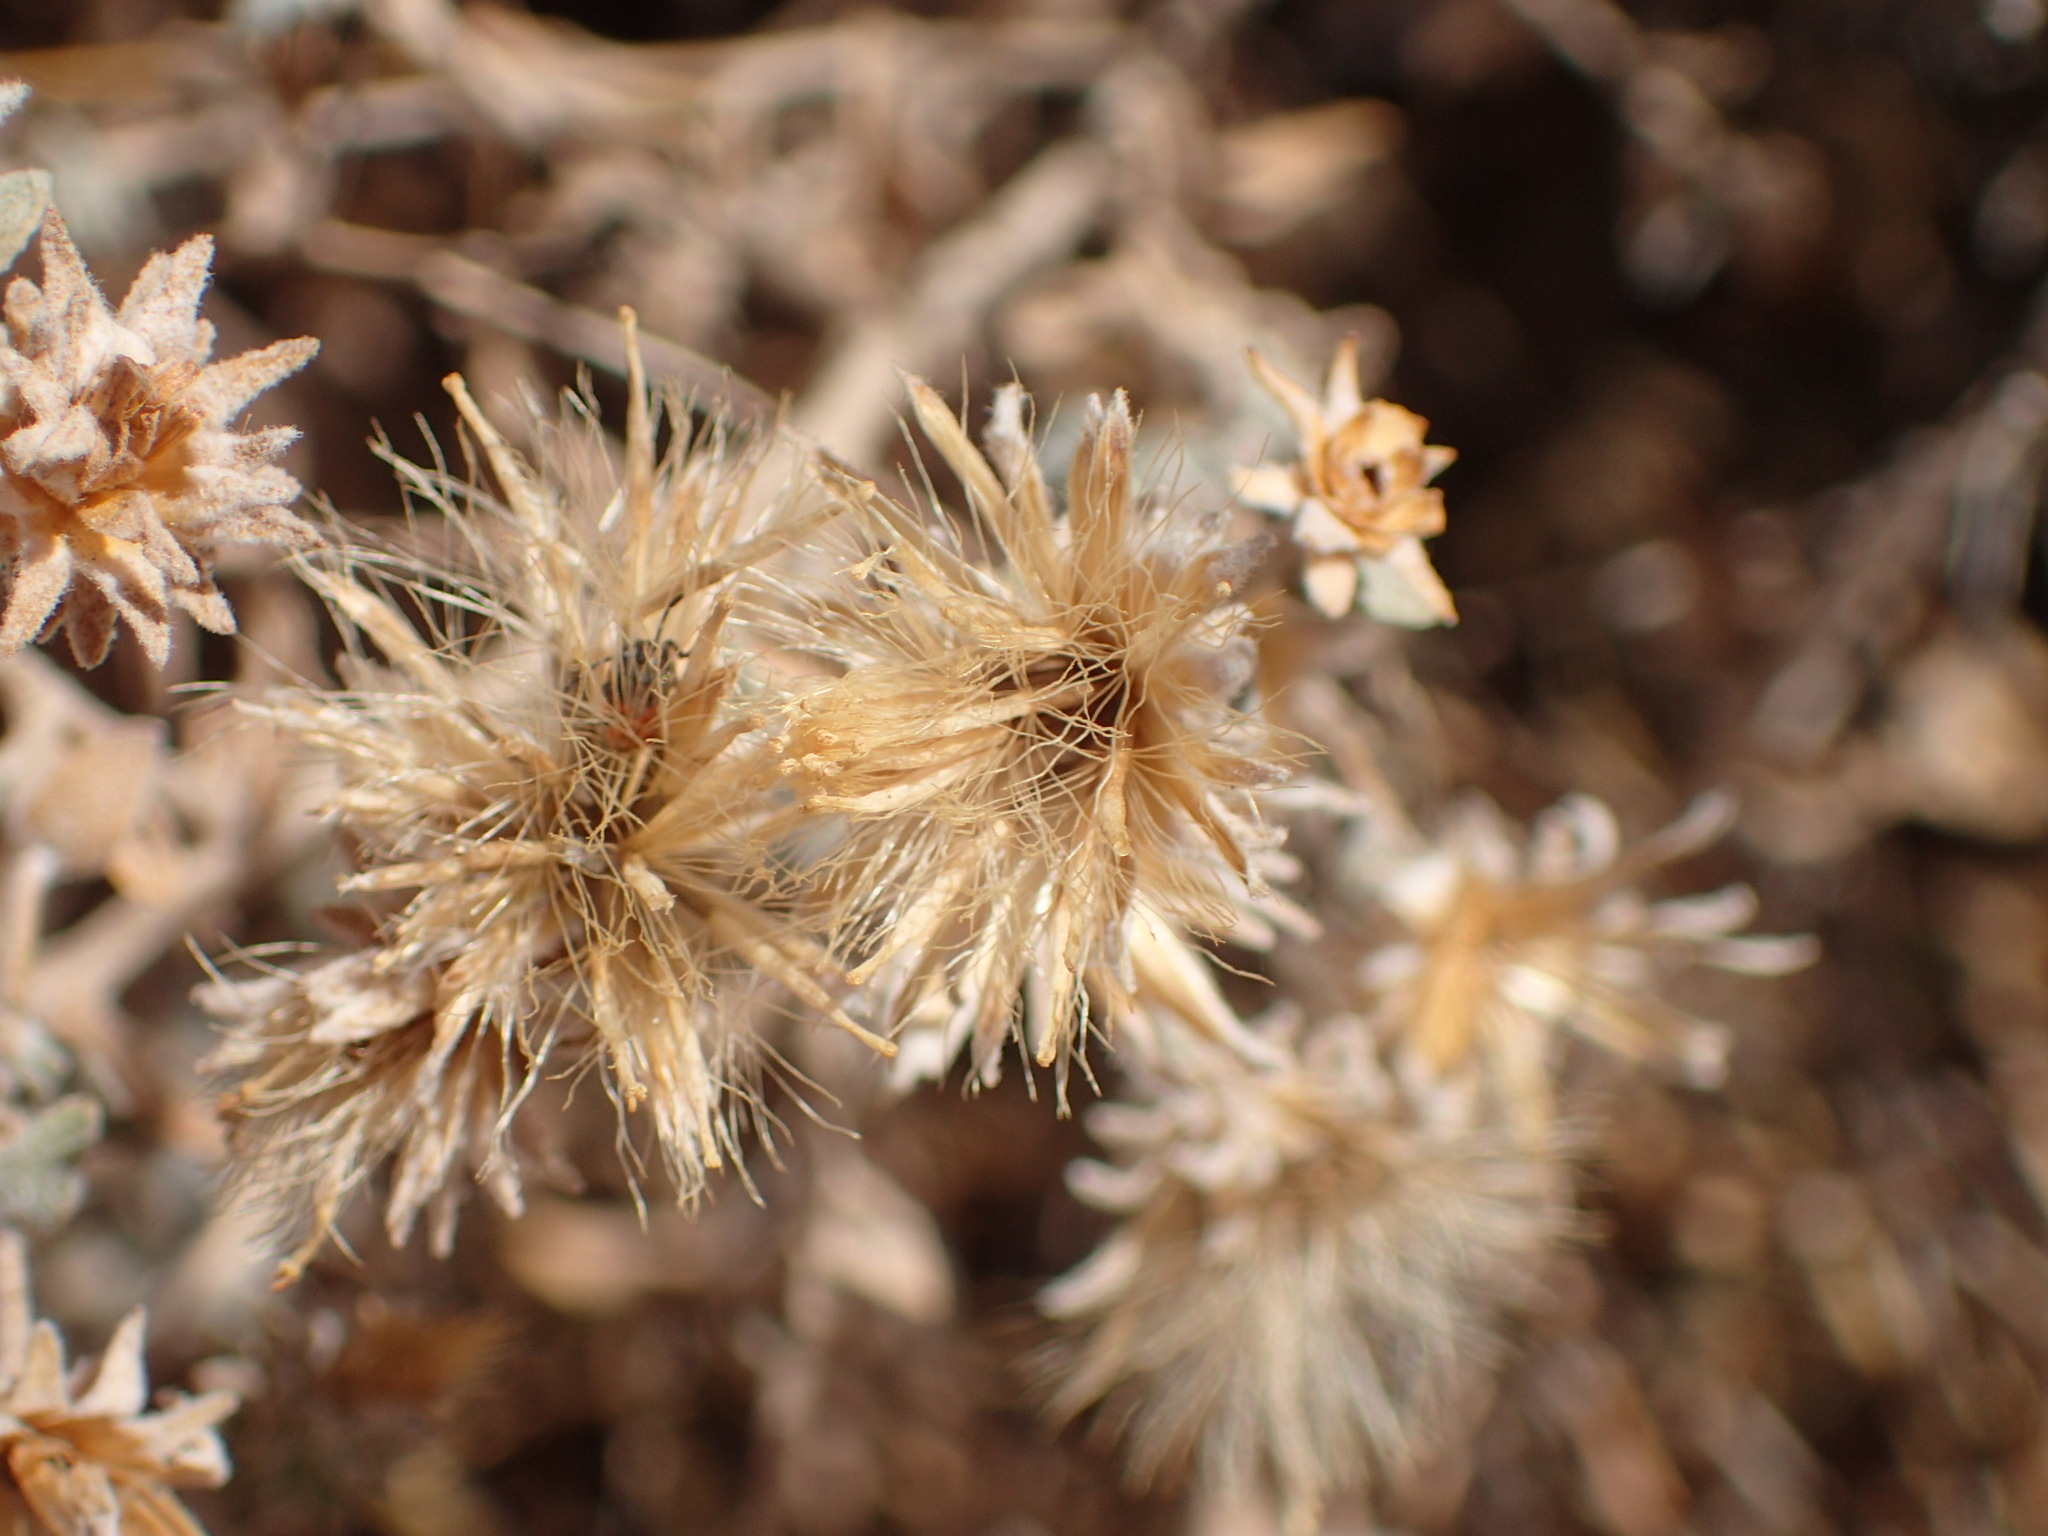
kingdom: Plantae
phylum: Tracheophyta
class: Magnoliopsida
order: Asterales
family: Asteraceae
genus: Brickellia
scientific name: Brickellia nevinii
